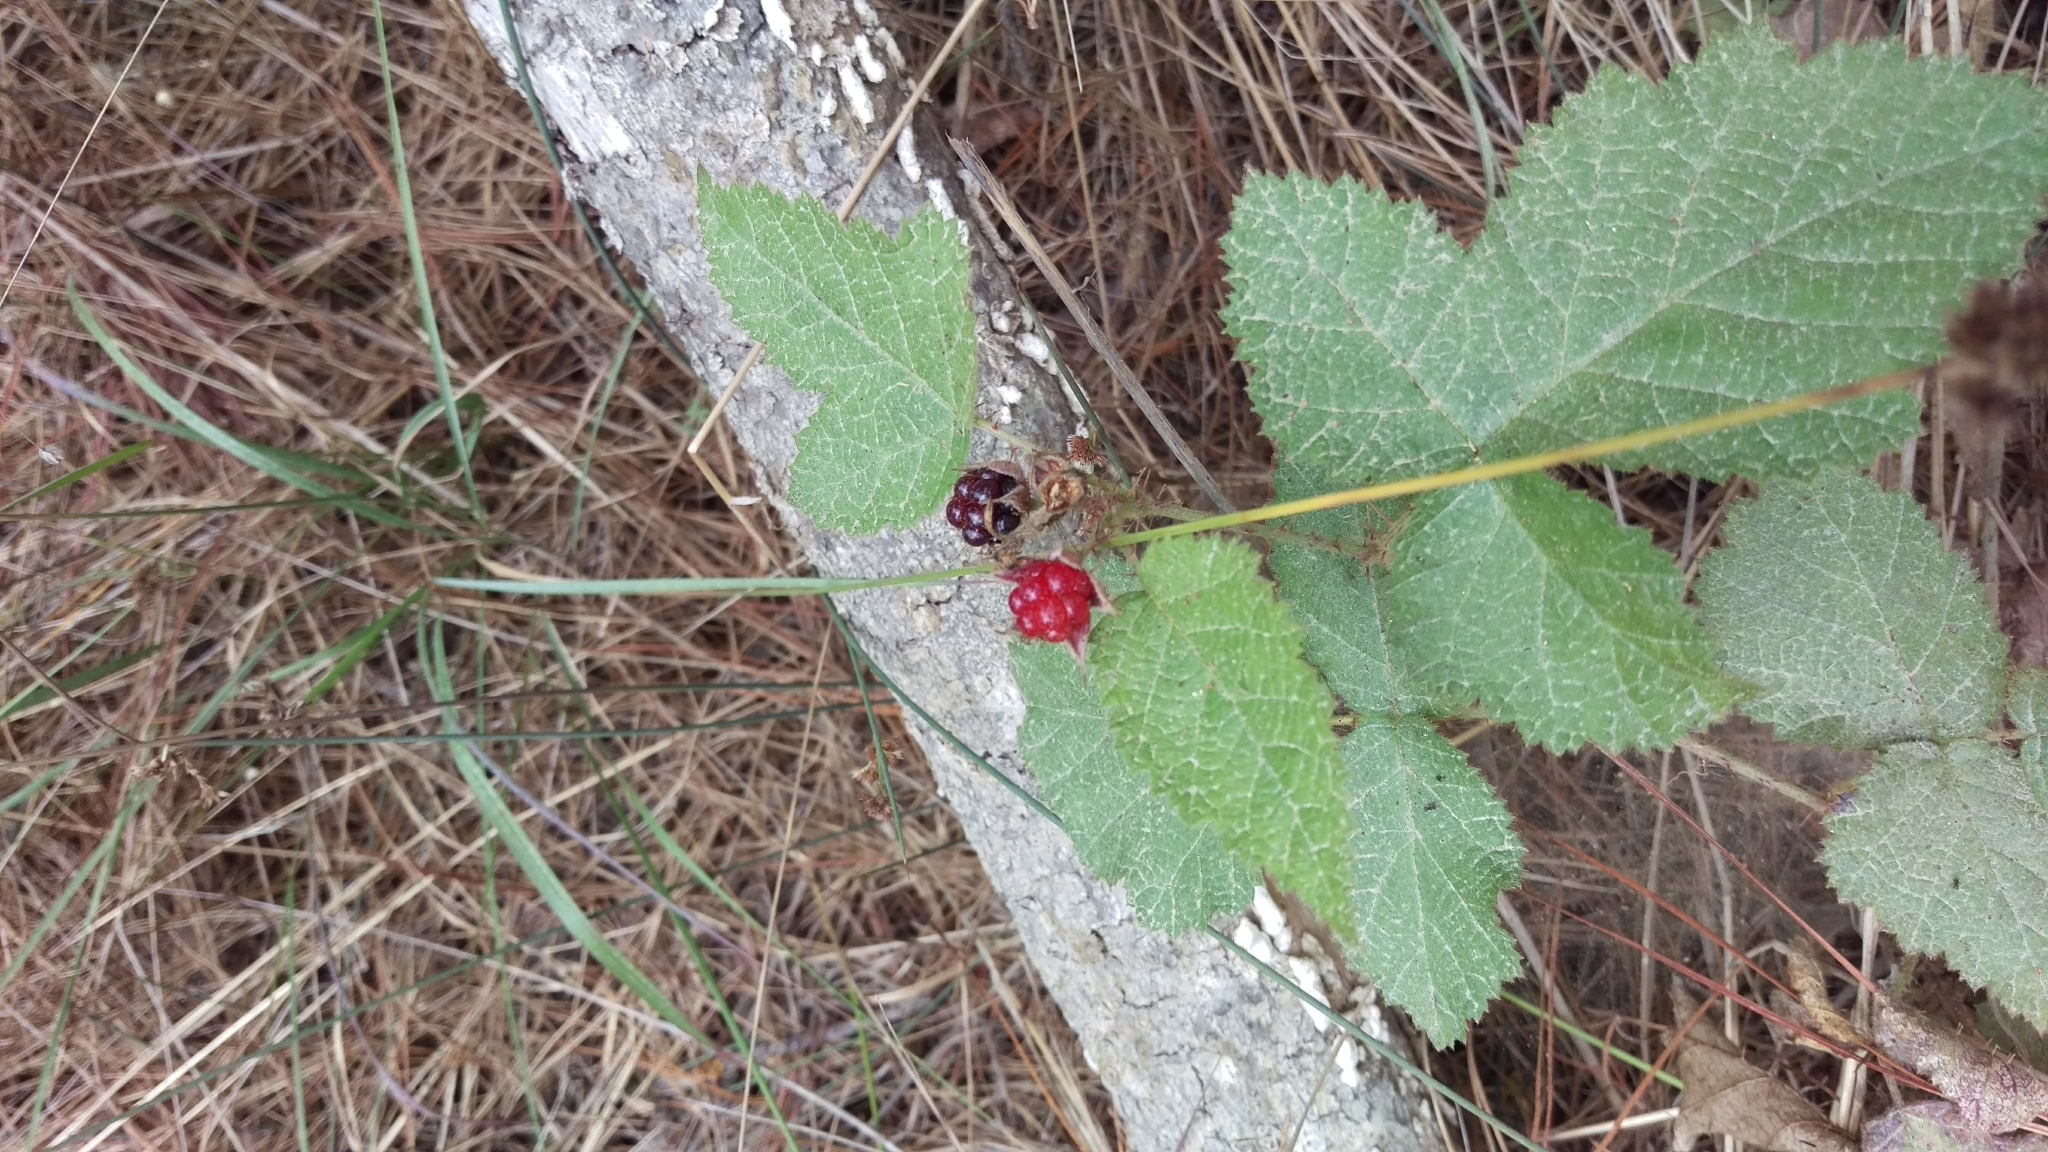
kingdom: Plantae
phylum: Tracheophyta
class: Magnoliopsida
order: Rosales
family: Rosaceae
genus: Rubus
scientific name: Rubus ursinus
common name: Pacific blackberry
